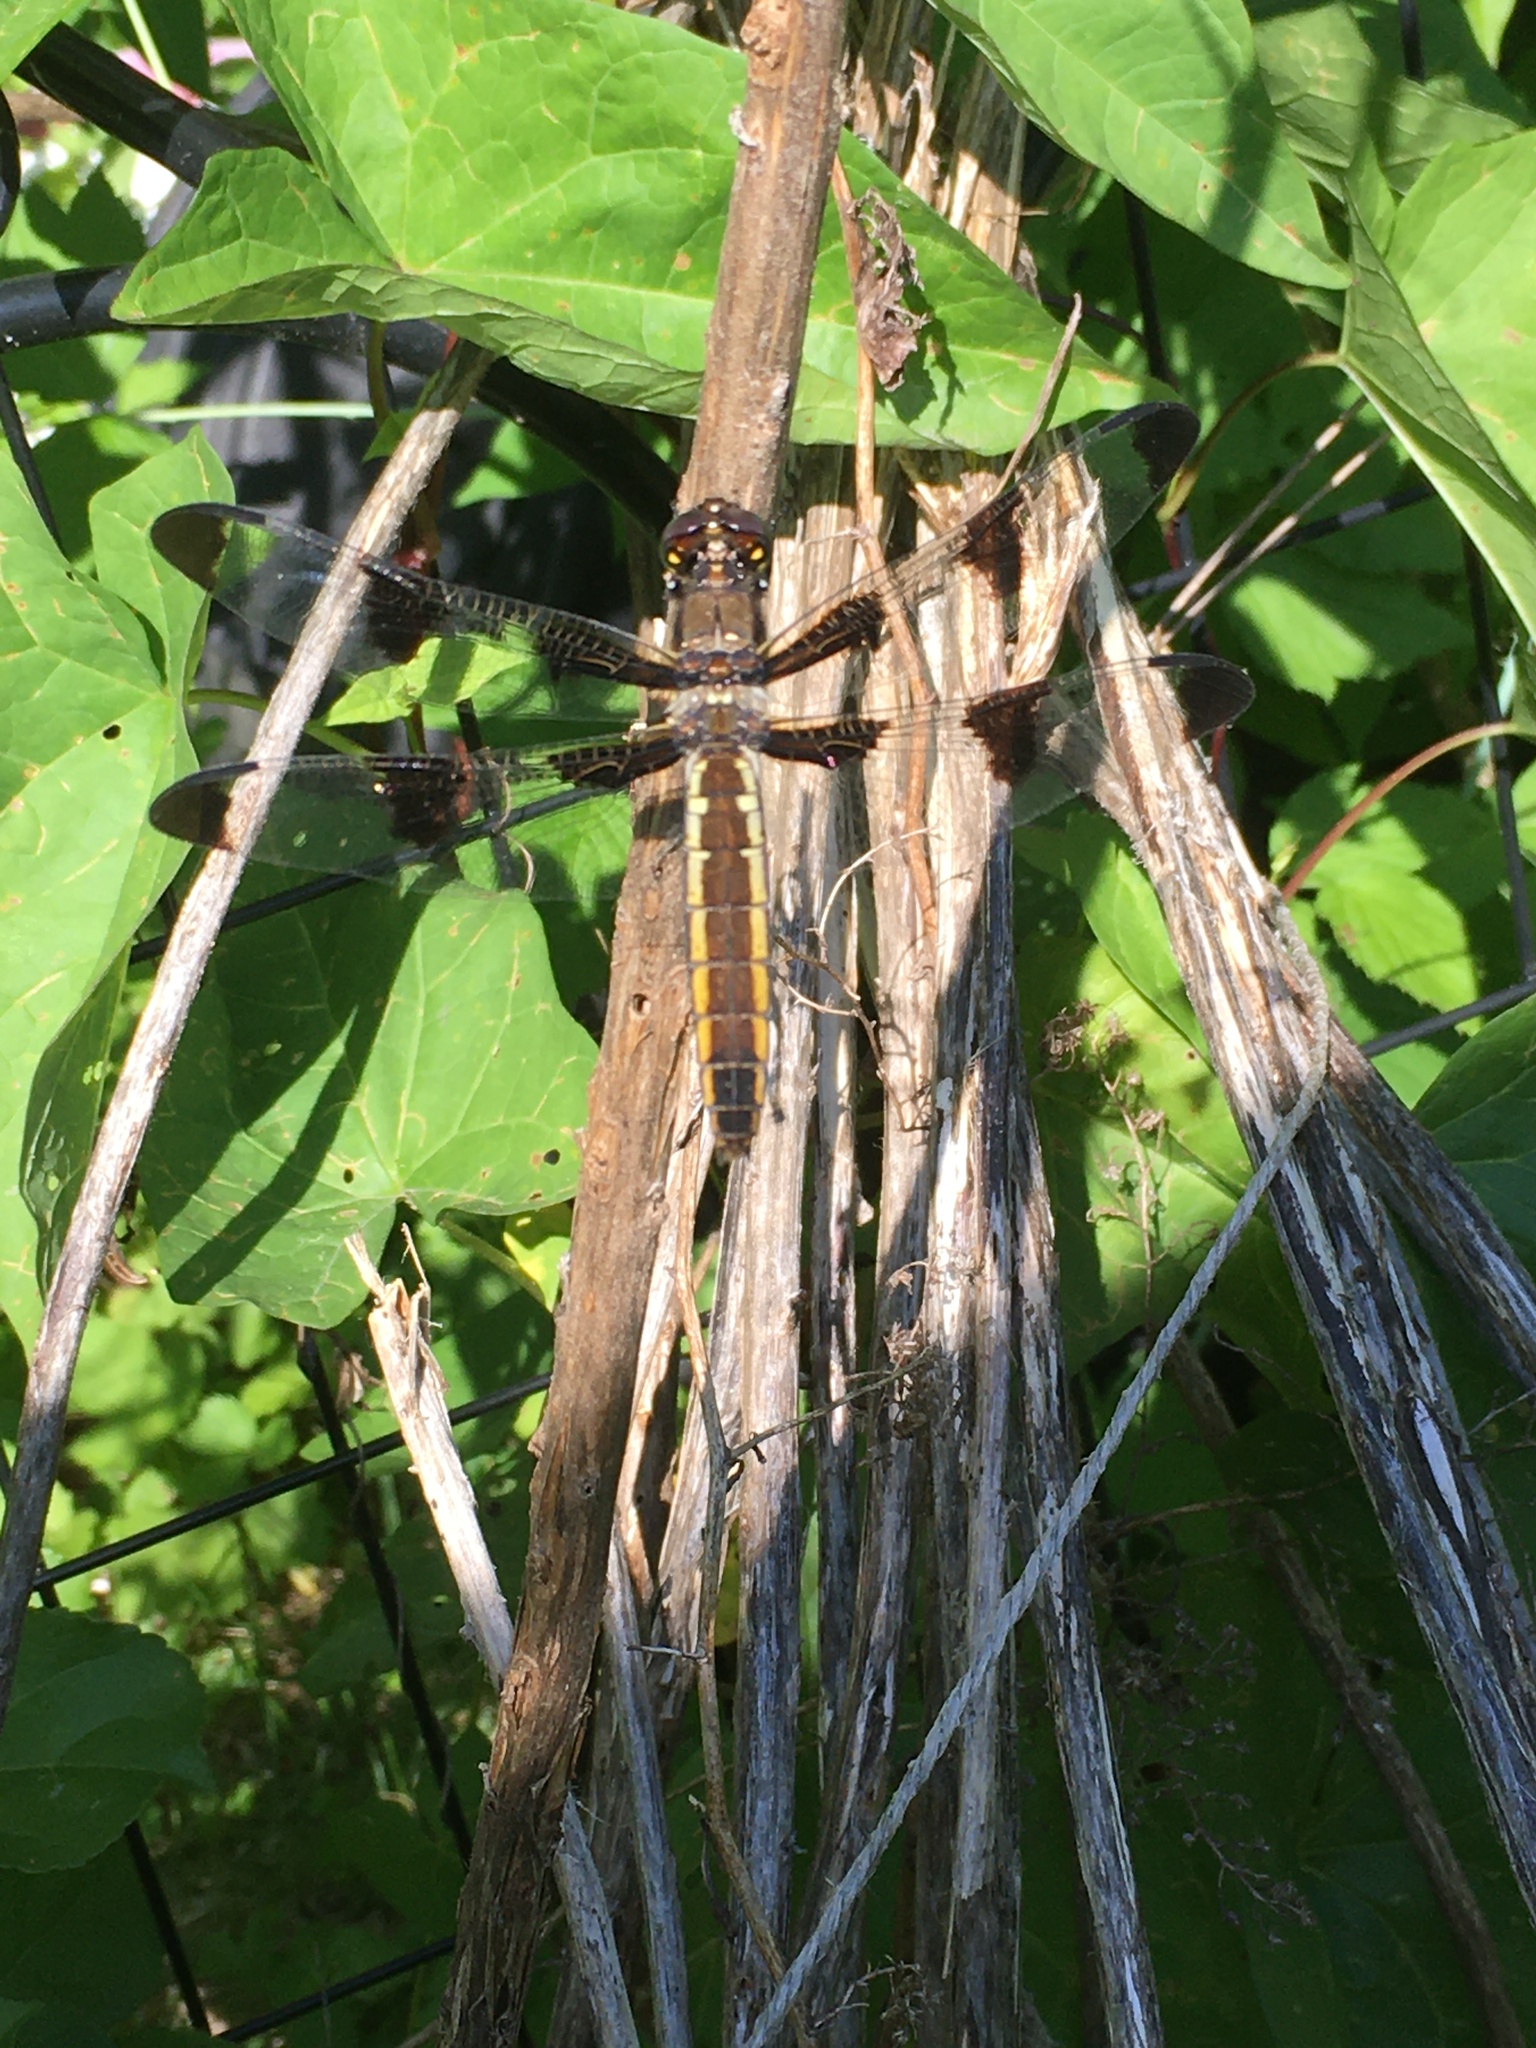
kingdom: Animalia
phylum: Arthropoda
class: Insecta
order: Odonata
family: Libellulidae
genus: Libellula
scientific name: Libellula pulchella
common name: Twelve-spotted skimmer
